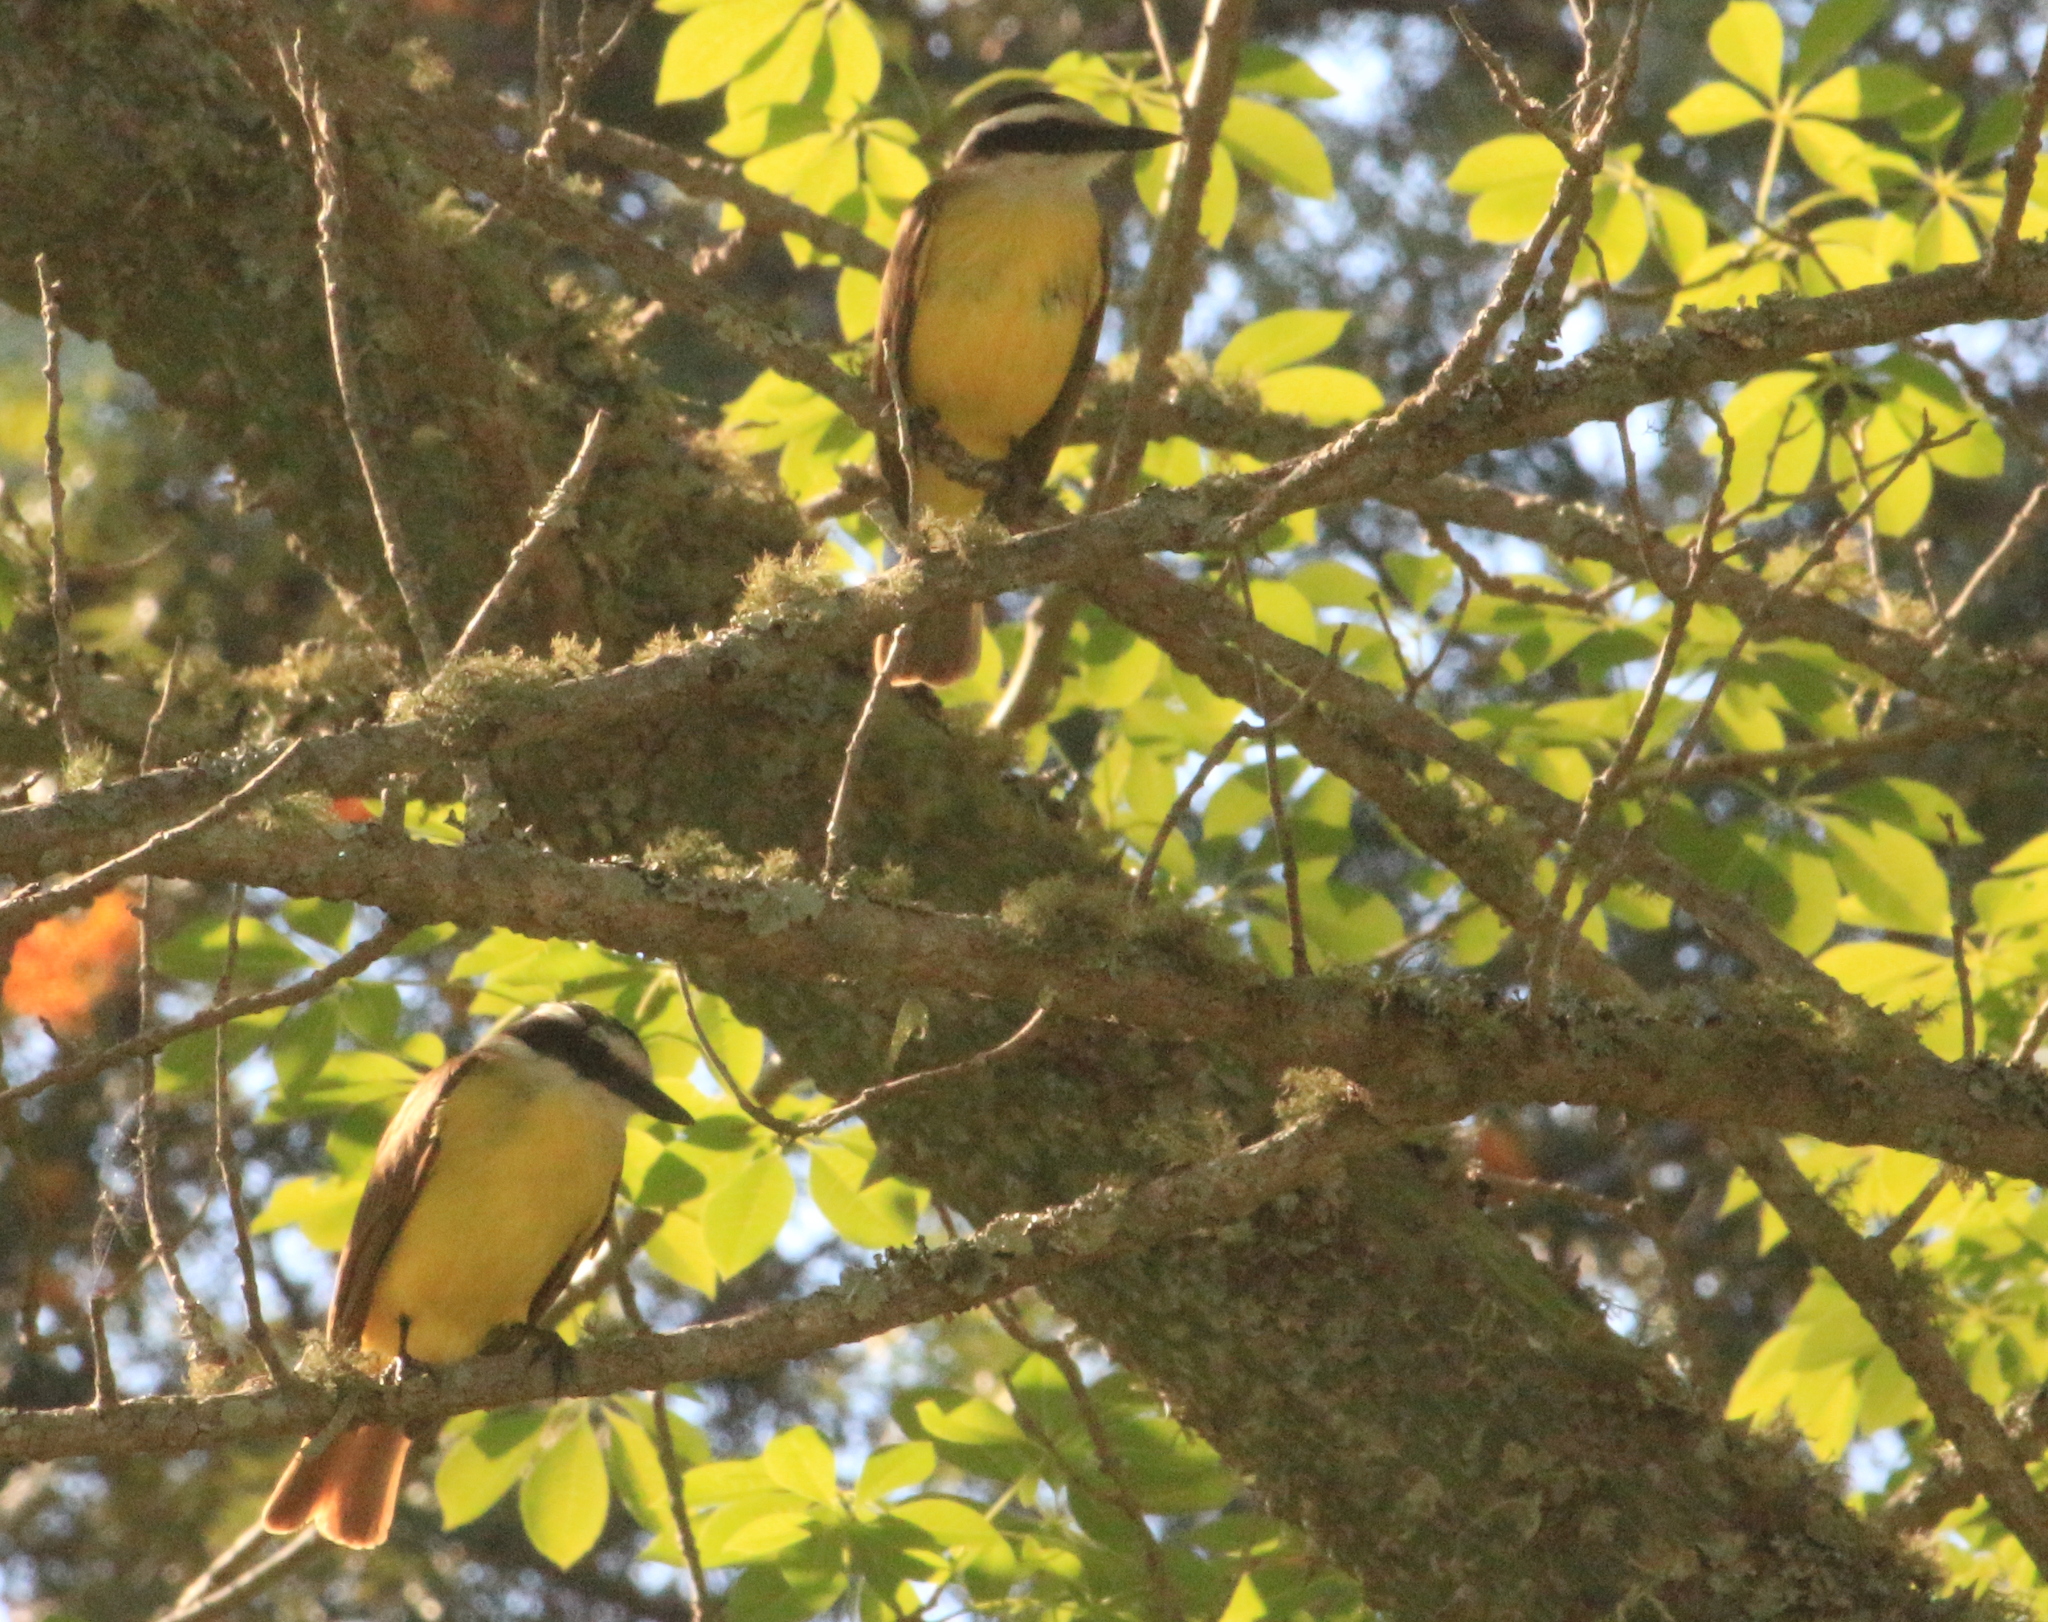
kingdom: Animalia
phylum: Chordata
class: Aves
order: Passeriformes
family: Tyrannidae
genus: Pitangus
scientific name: Pitangus sulphuratus
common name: Great kiskadee
